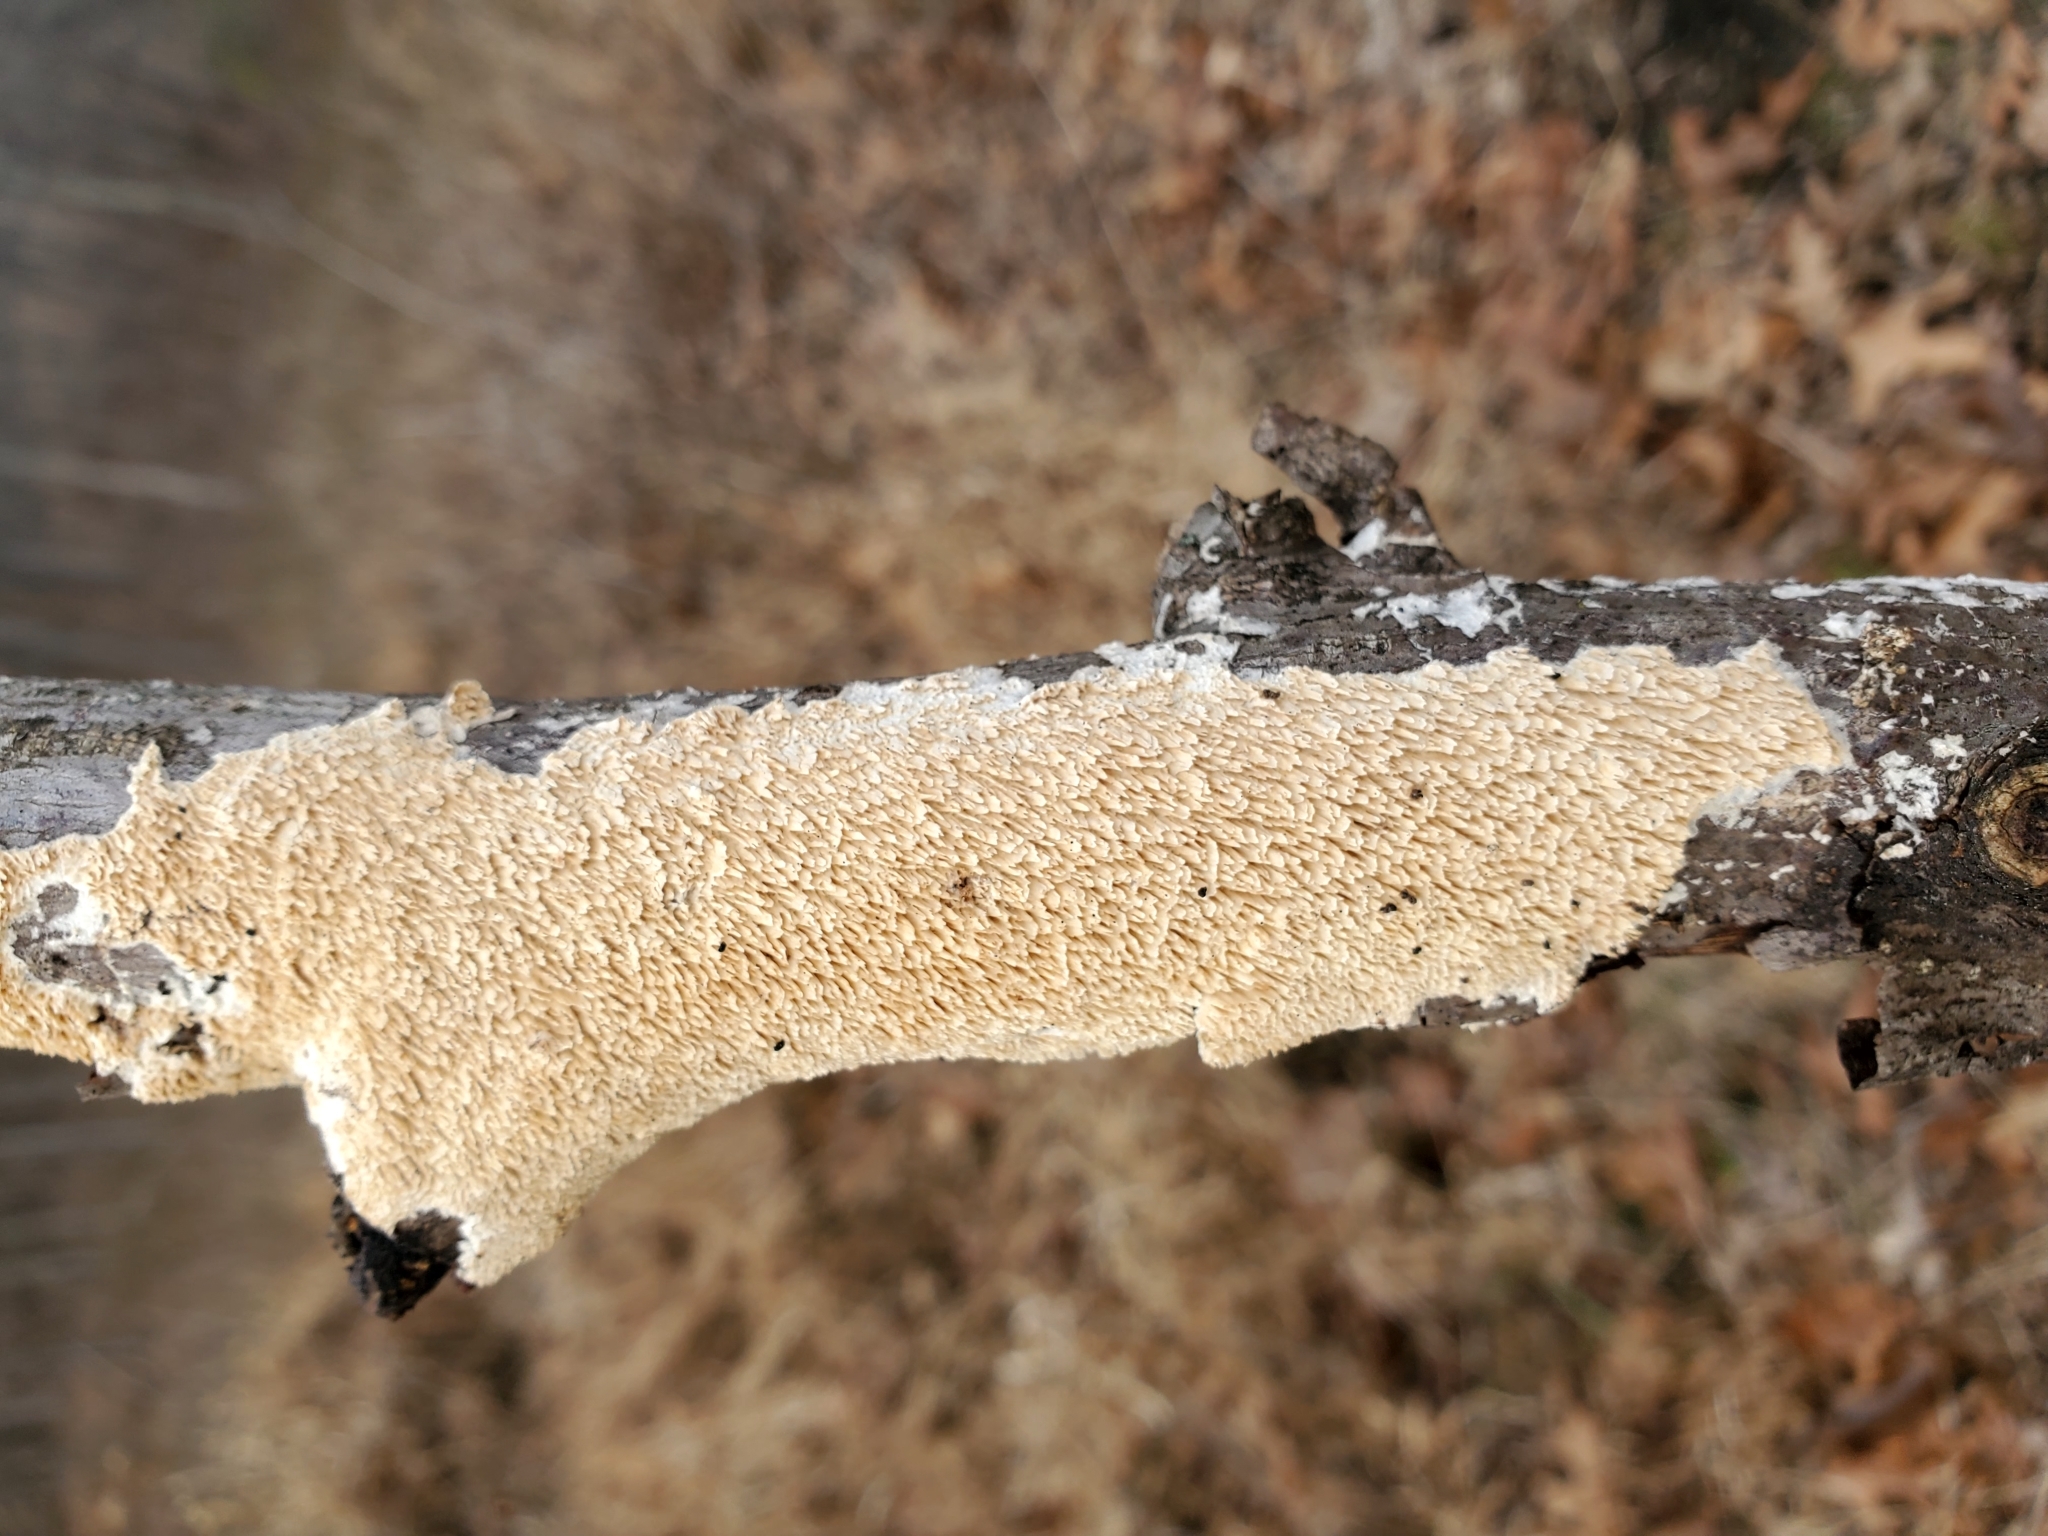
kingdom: Fungi
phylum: Basidiomycota
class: Agaricomycetes
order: Polyporales
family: Irpicaceae
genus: Irpex
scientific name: Irpex lacteus
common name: Milk-white toothed polypore
